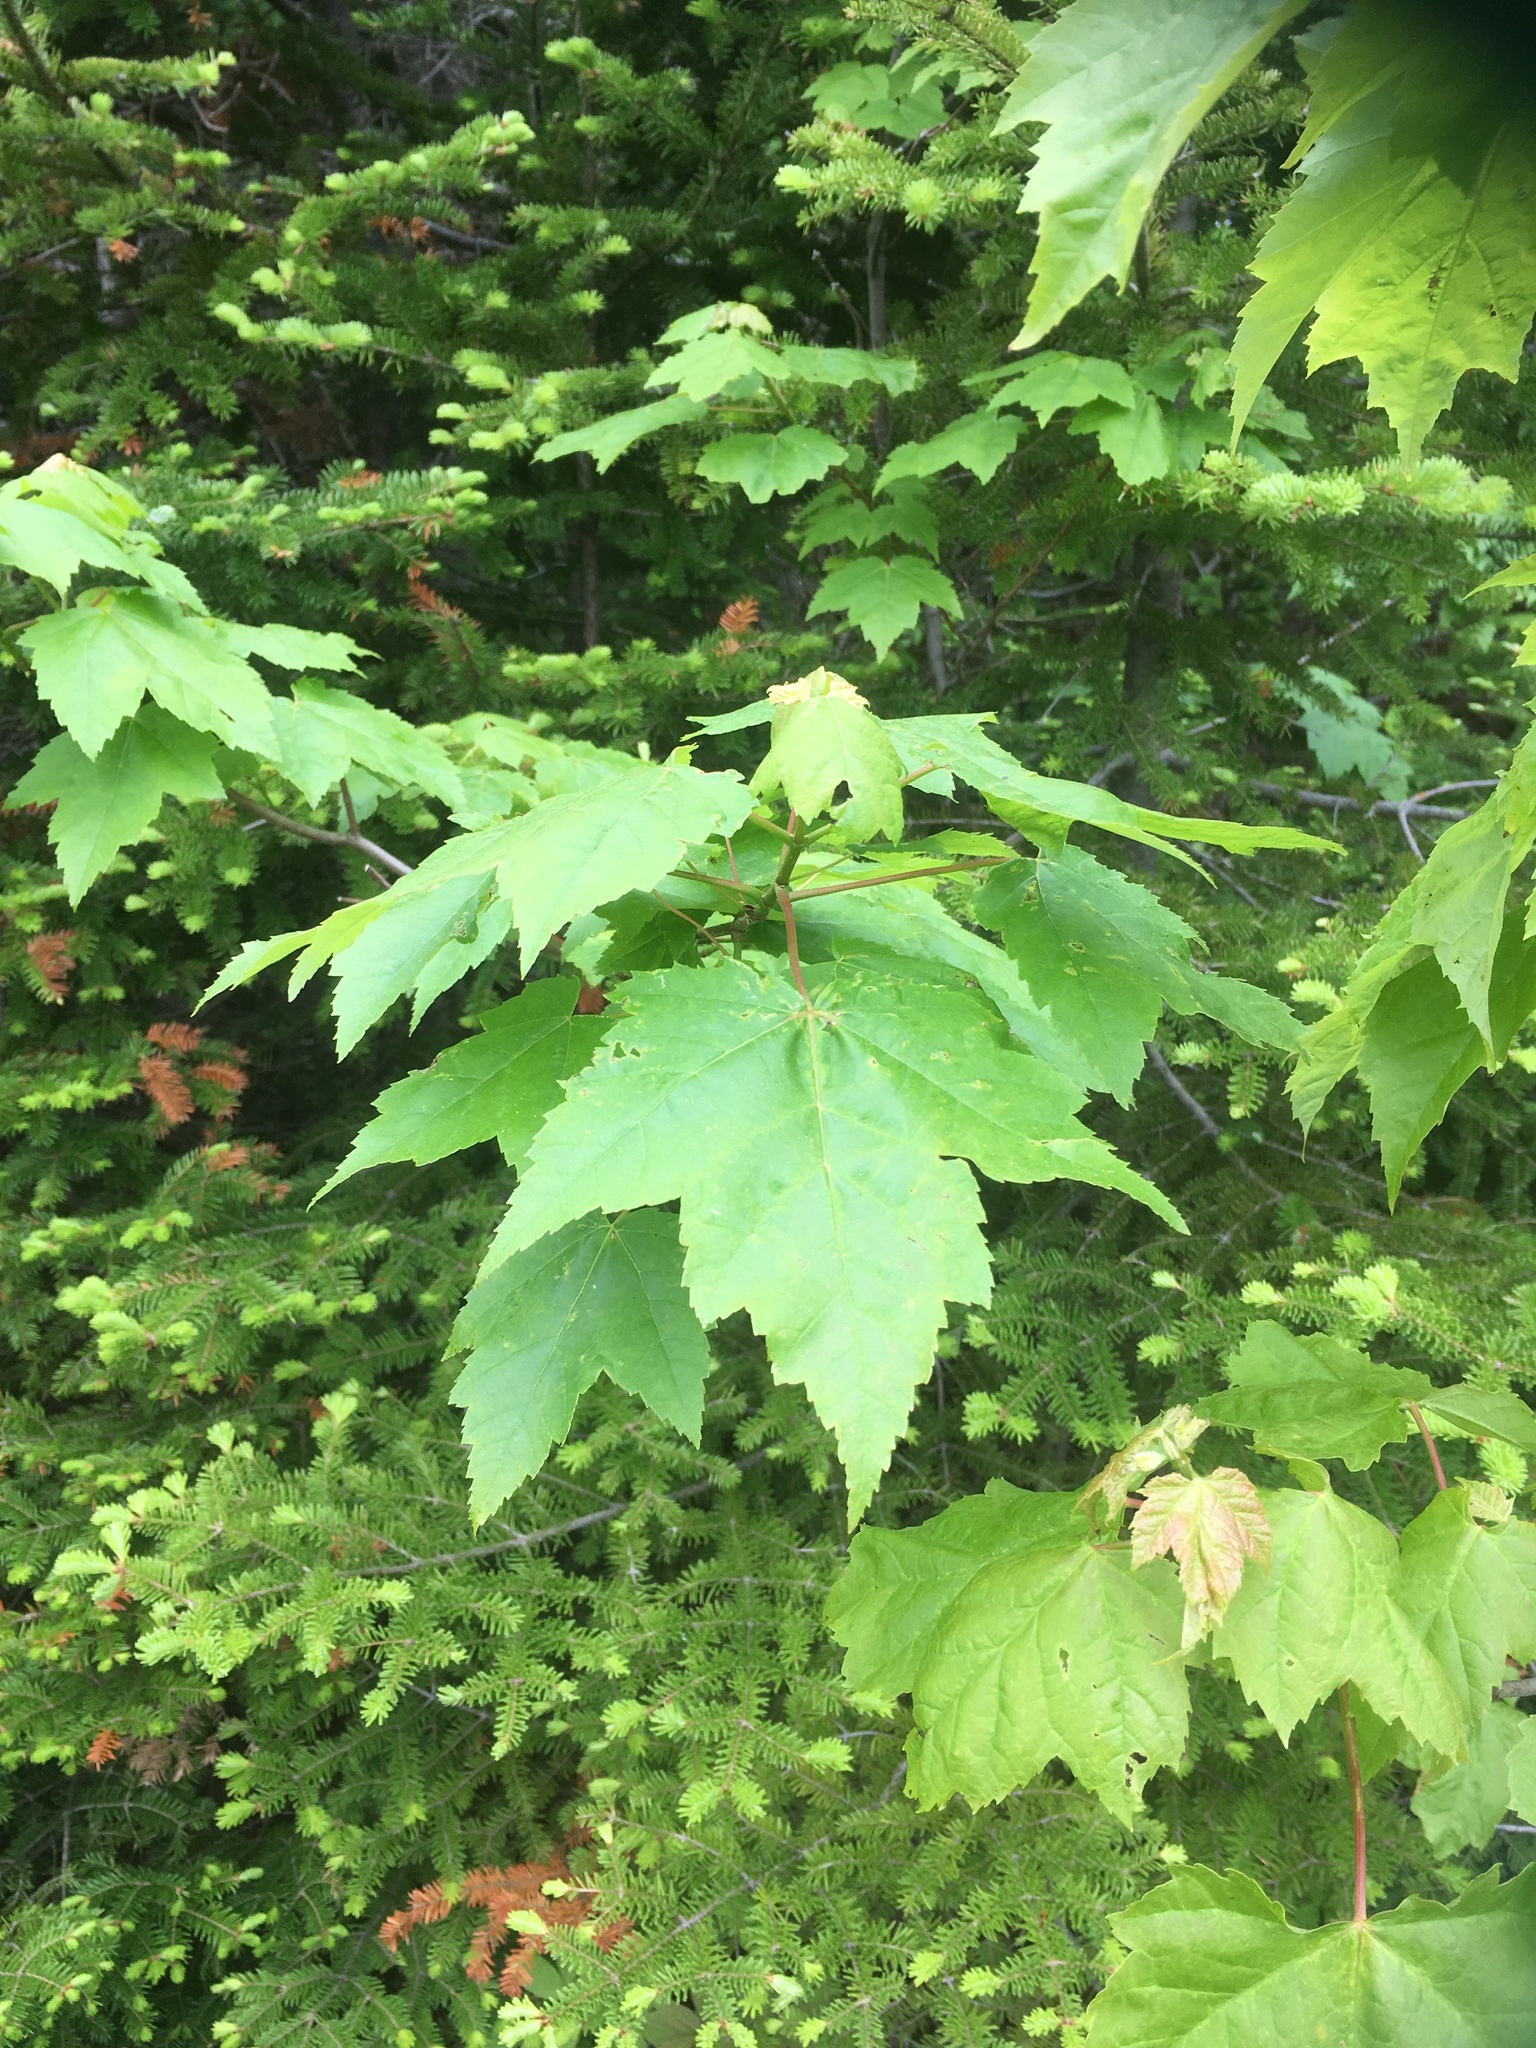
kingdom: Plantae
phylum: Tracheophyta
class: Magnoliopsida
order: Sapindales
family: Sapindaceae
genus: Acer
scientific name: Acer rubrum
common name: Red maple
